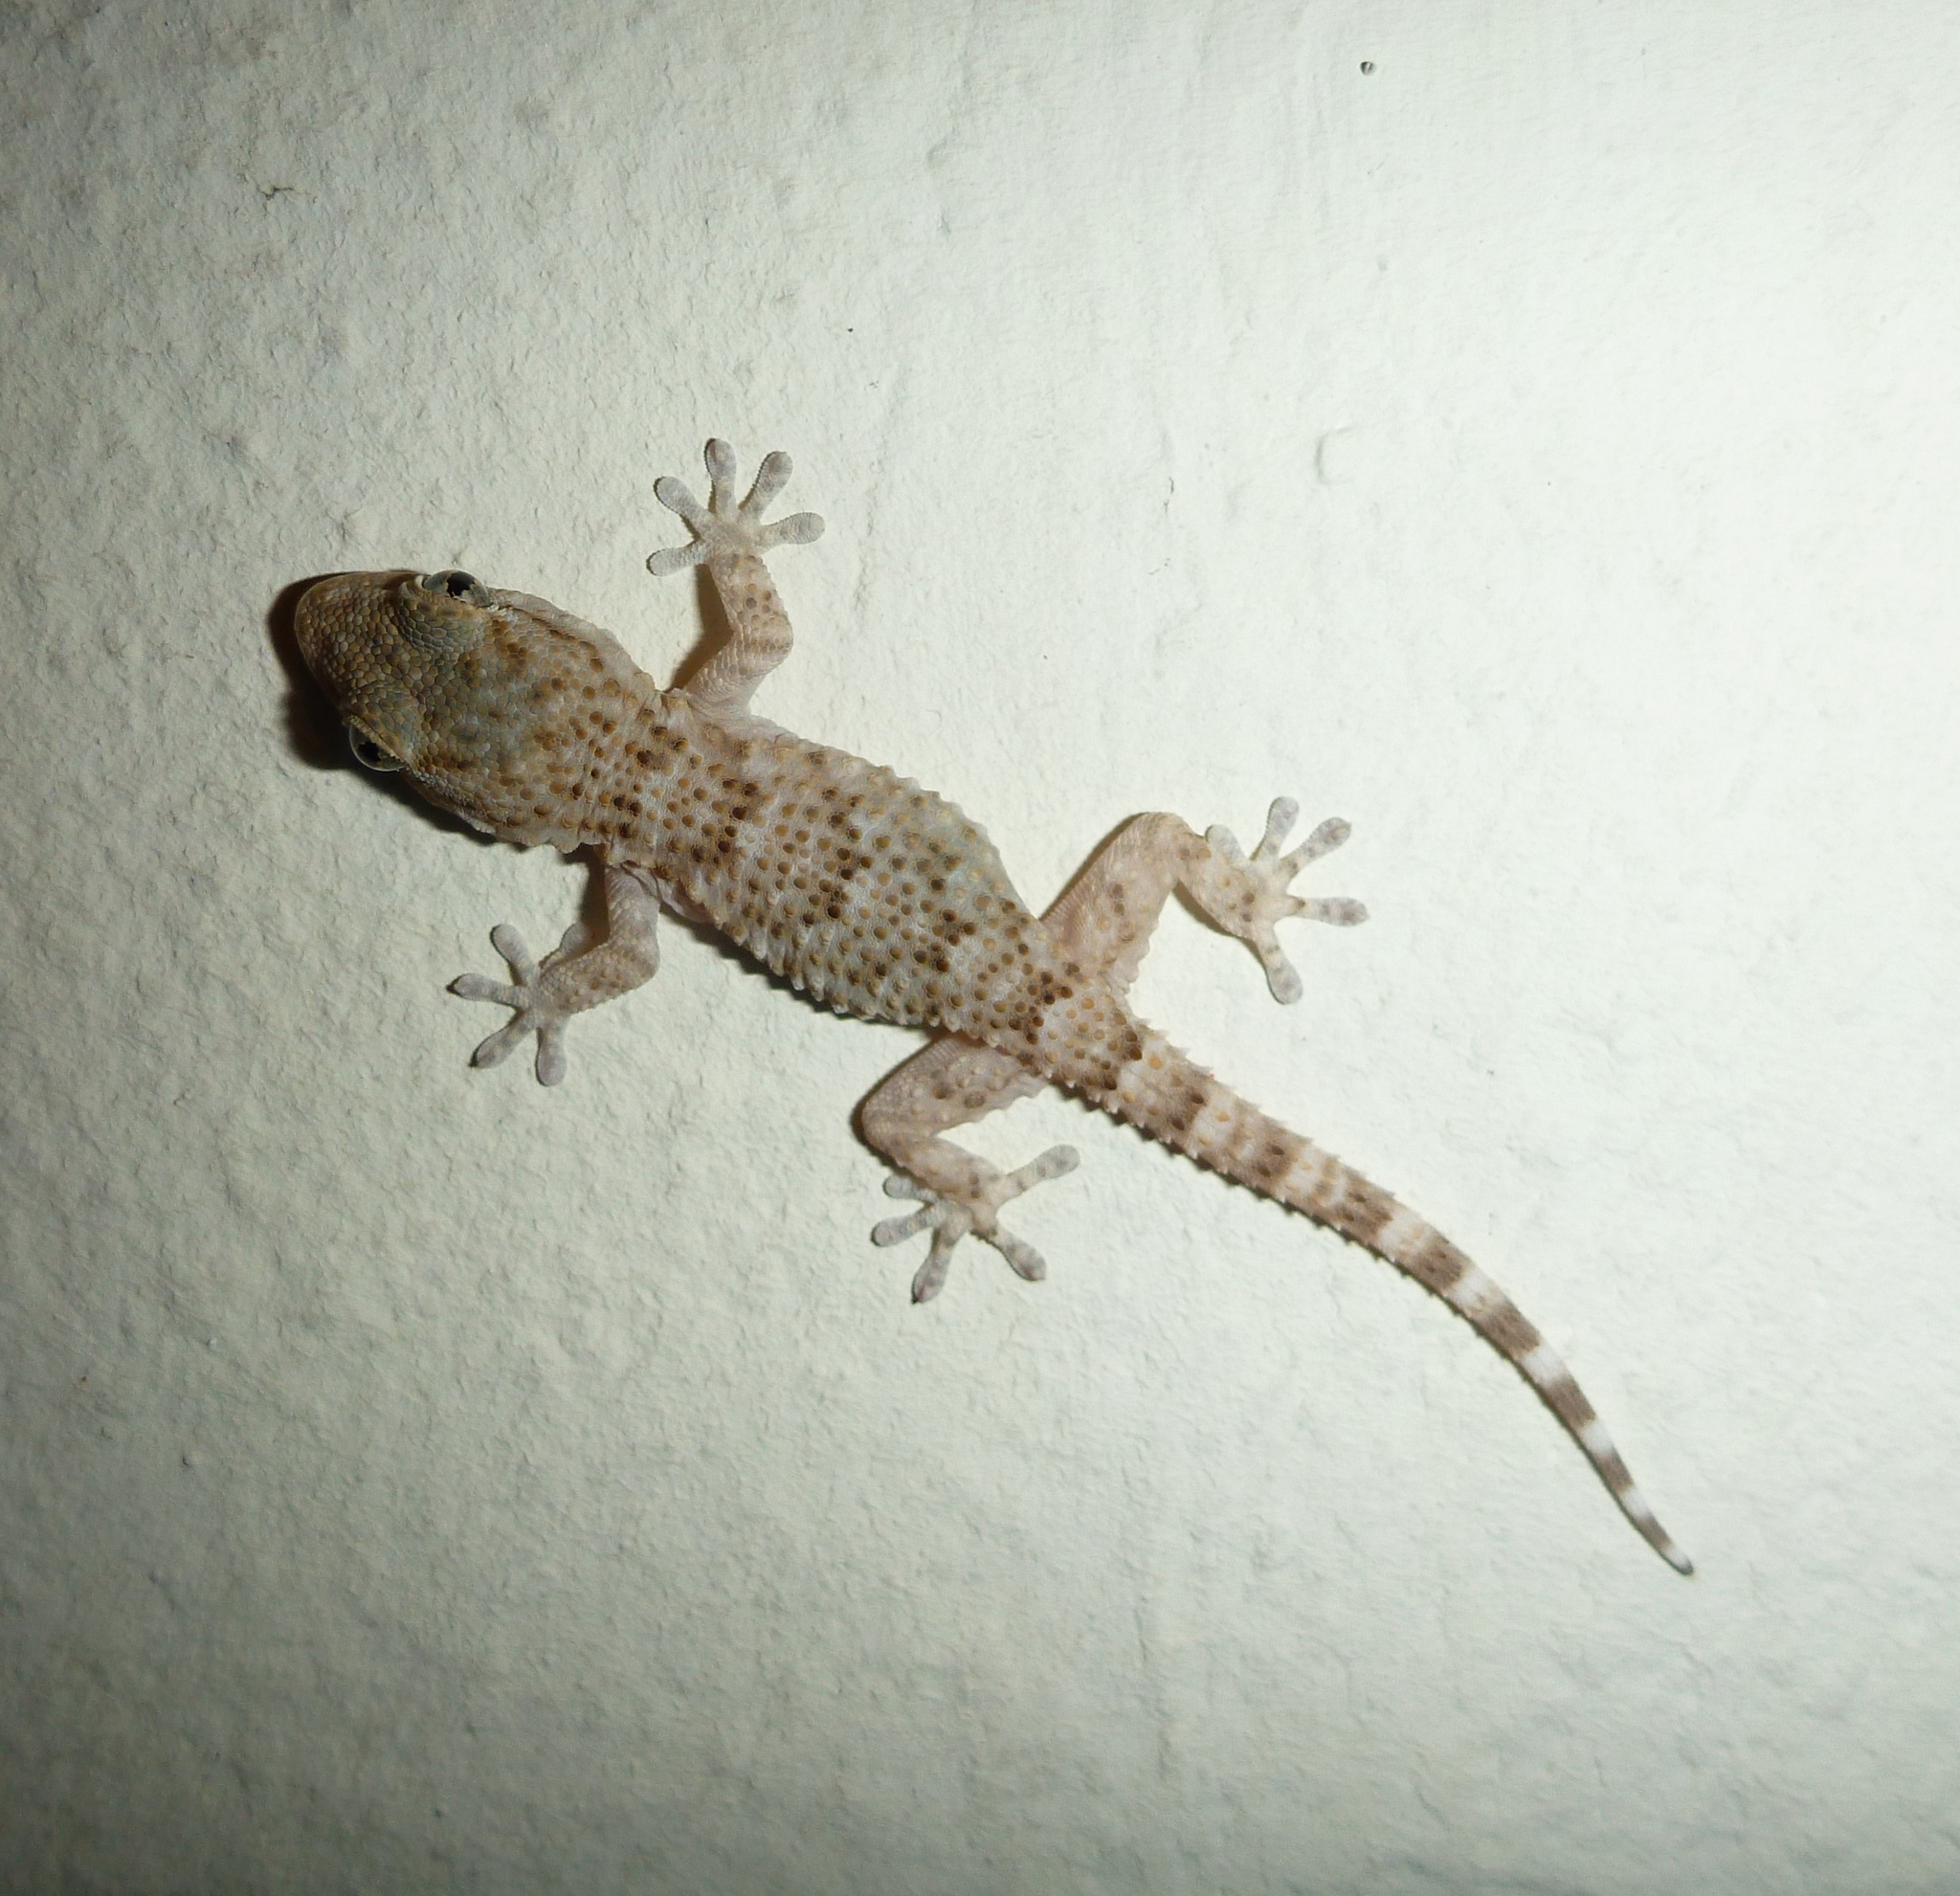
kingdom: Animalia
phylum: Chordata
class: Squamata
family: Phyllodactylidae
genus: Tarentola
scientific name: Tarentola mauritanica
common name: Moorish gecko
